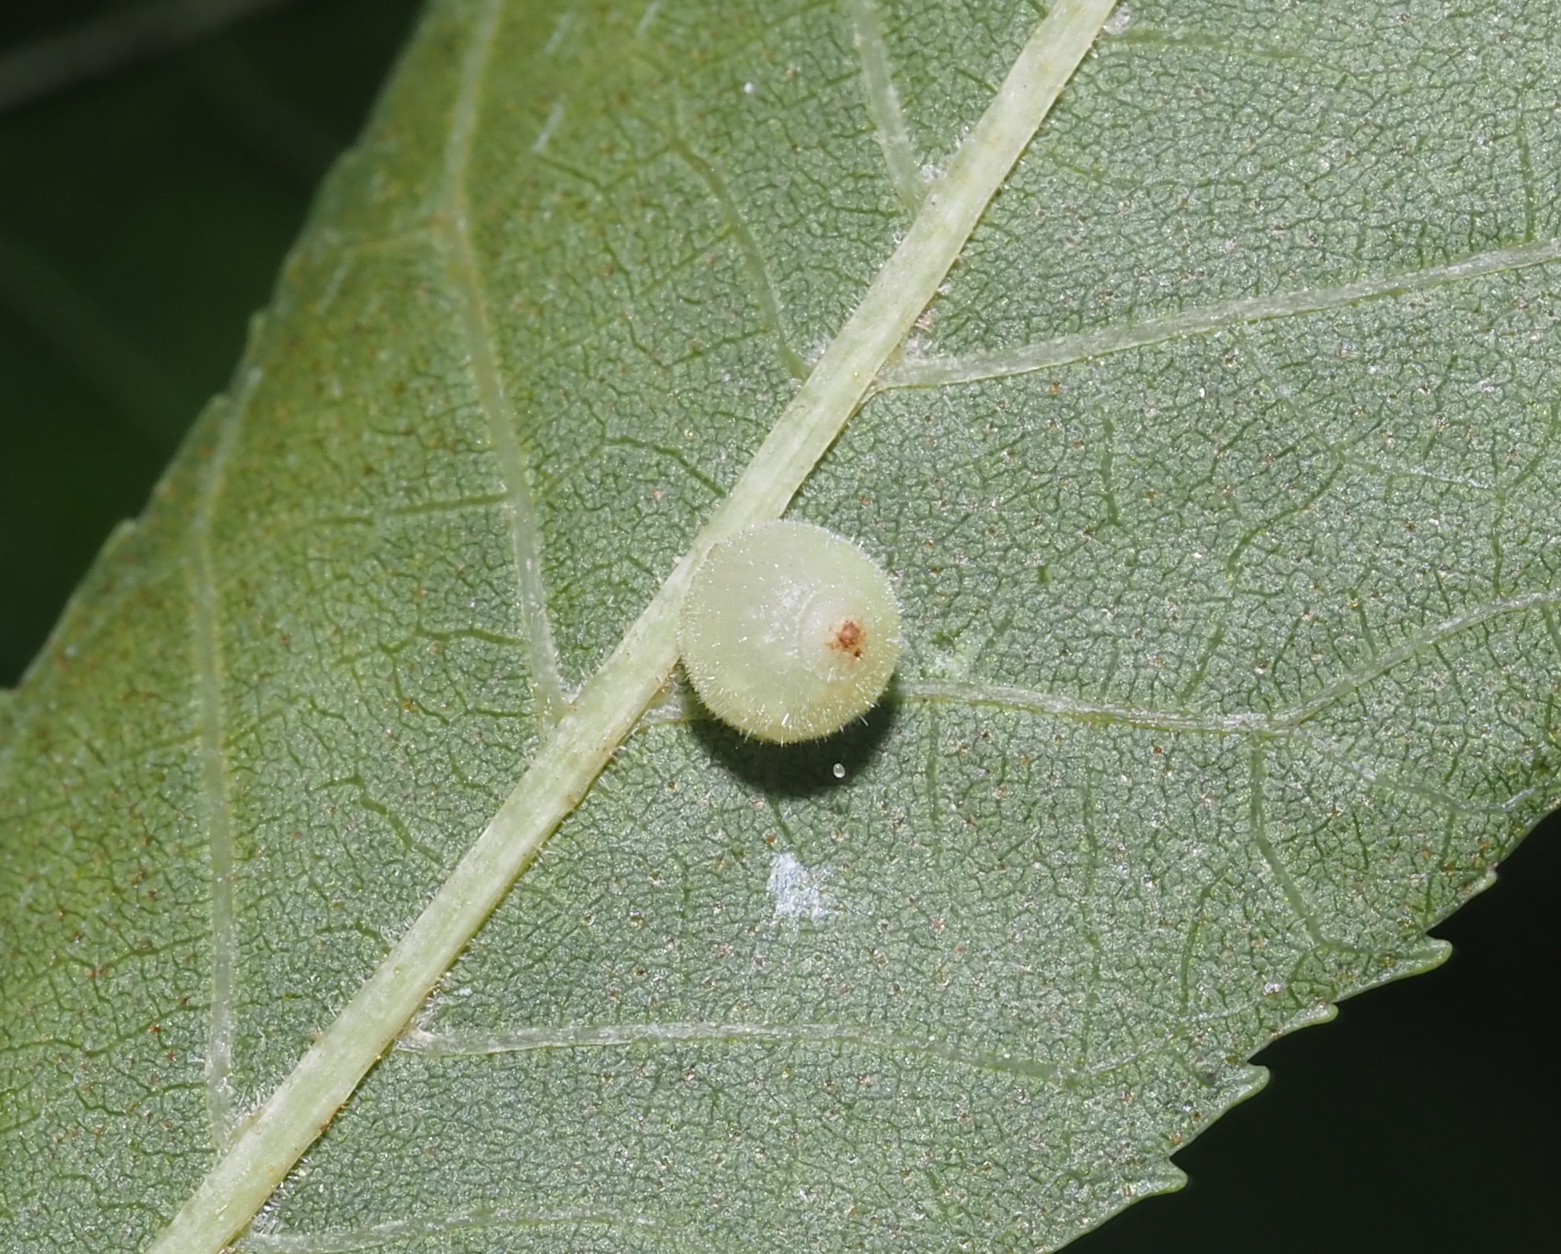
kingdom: Animalia
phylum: Arthropoda
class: Insecta
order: Diptera
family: Cecidomyiidae
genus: Caryomyia
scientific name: Caryomyia cilidolium
